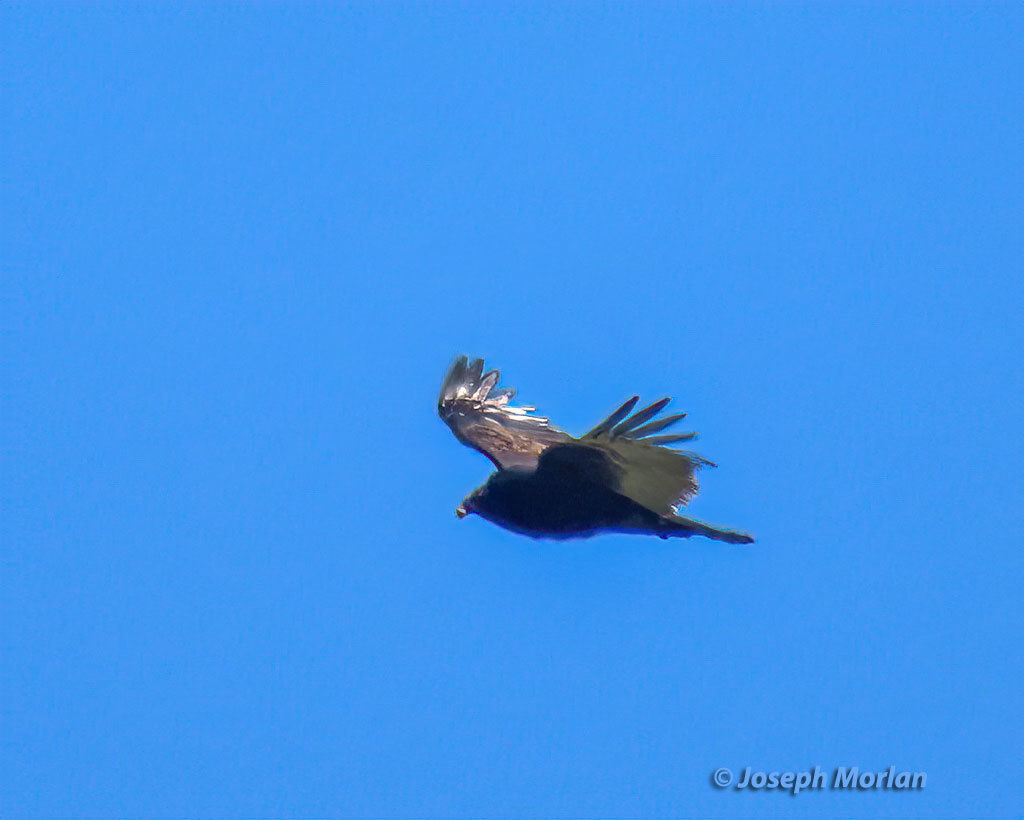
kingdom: Animalia
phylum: Chordata
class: Aves
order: Accipitriformes
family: Cathartidae
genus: Cathartes
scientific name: Cathartes aura
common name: Turkey vulture
